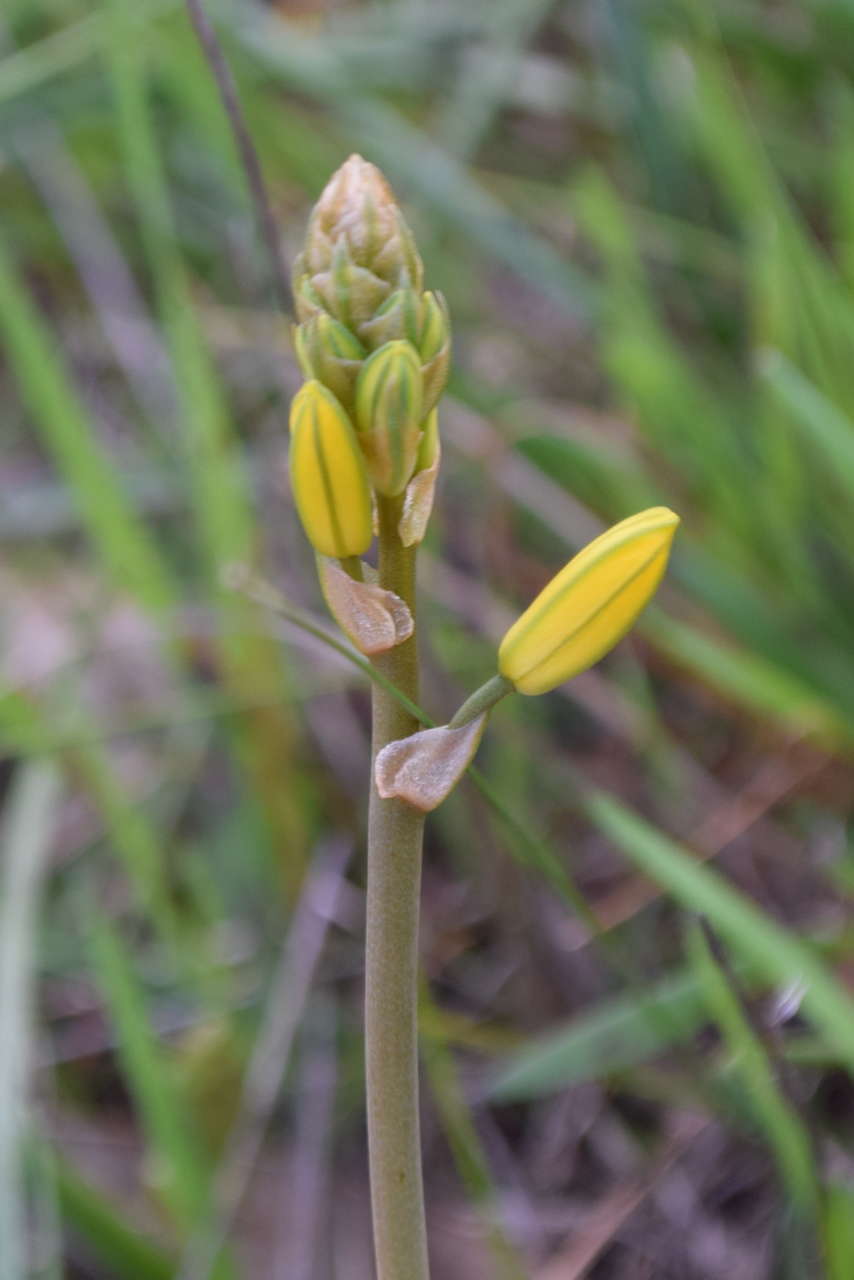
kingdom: Plantae
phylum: Tracheophyta
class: Liliopsida
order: Asparagales
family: Asphodelaceae
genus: Bulbine
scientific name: Bulbine bulbosa
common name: Golden-lily
